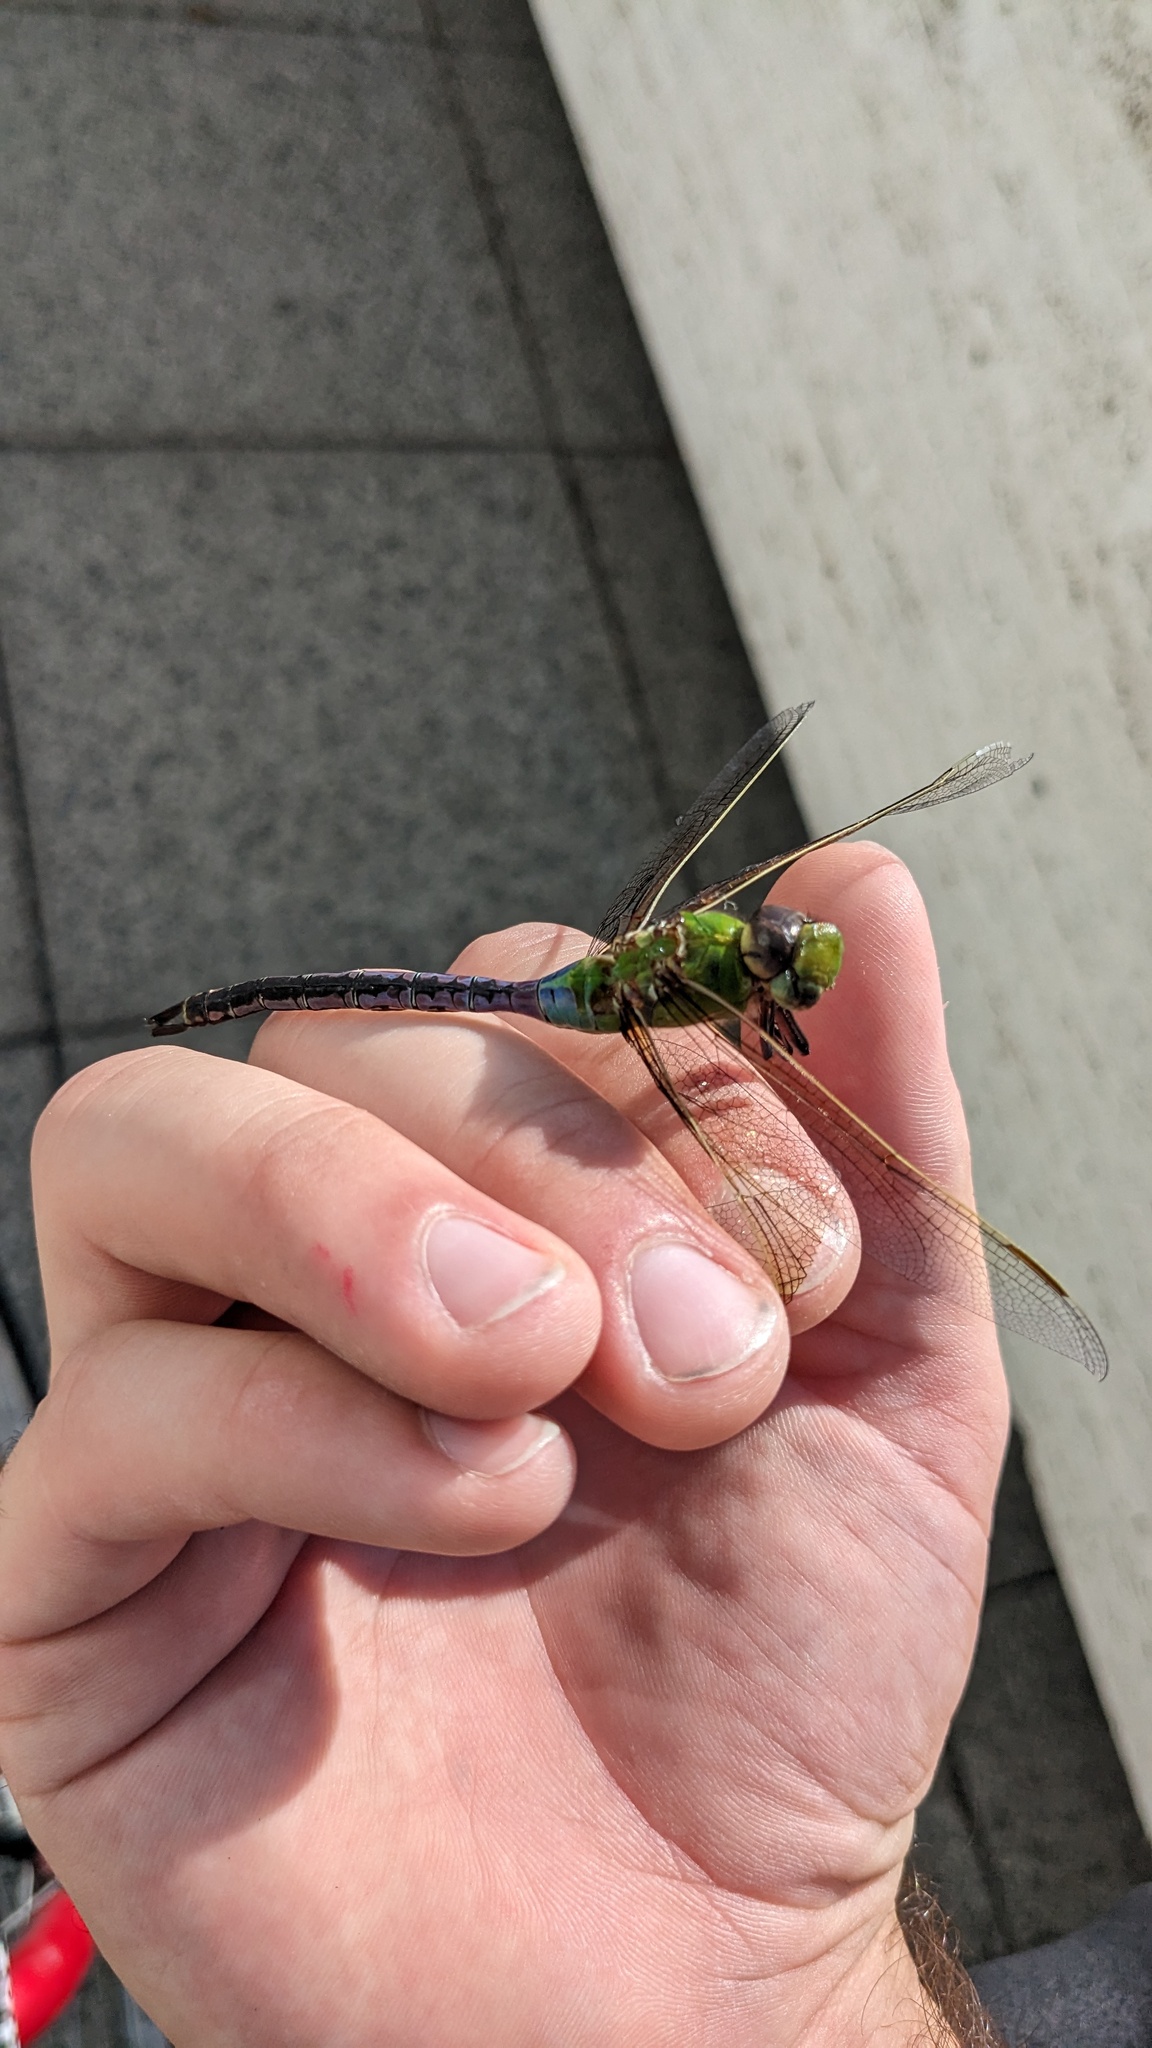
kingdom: Animalia
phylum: Arthropoda
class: Insecta
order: Odonata
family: Aeshnidae
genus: Anax
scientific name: Anax junius
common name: Common green darner
